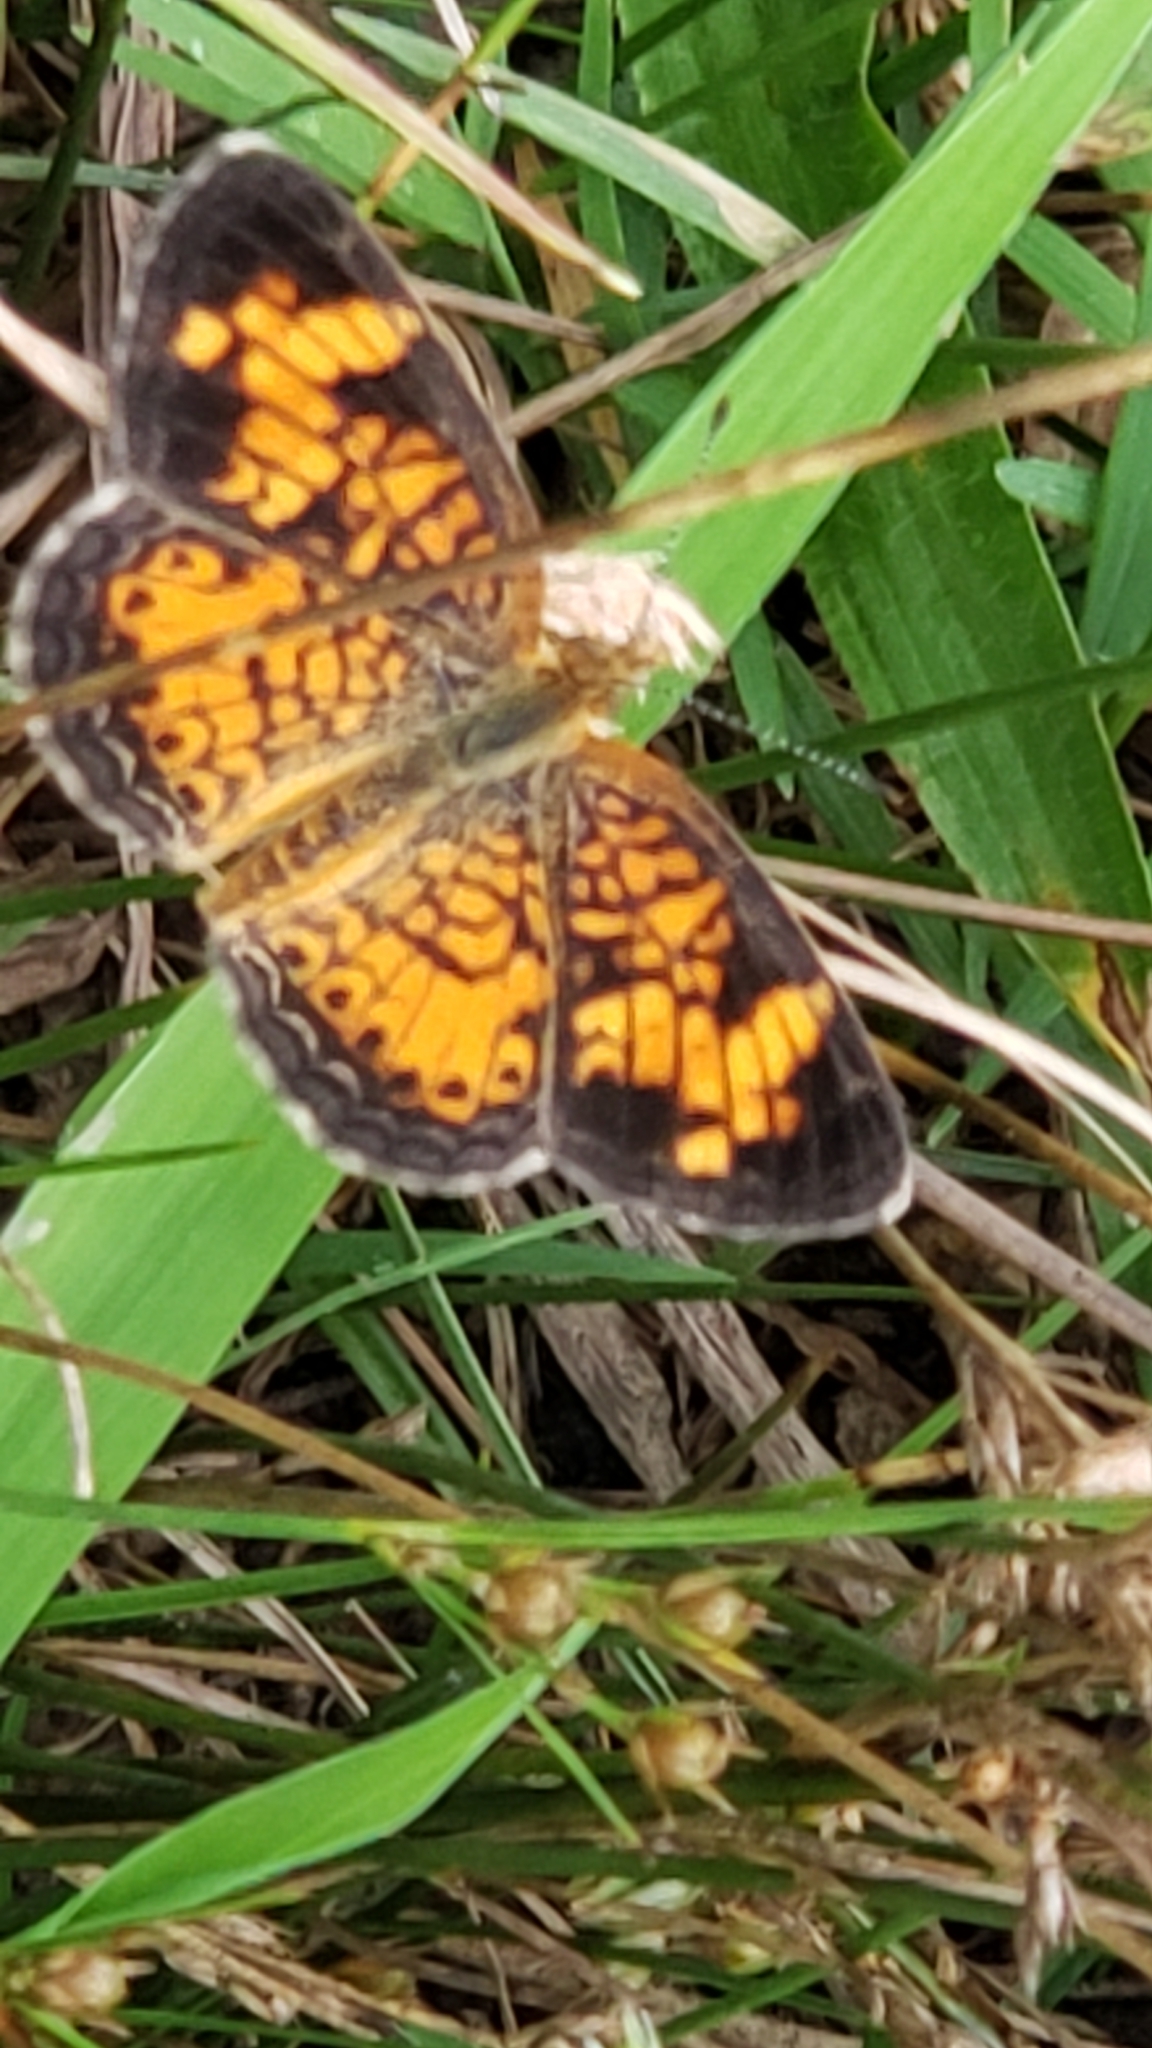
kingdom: Animalia
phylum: Arthropoda
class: Insecta
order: Lepidoptera
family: Nymphalidae
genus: Phyciodes
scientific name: Phyciodes tharos
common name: Pearl crescent
